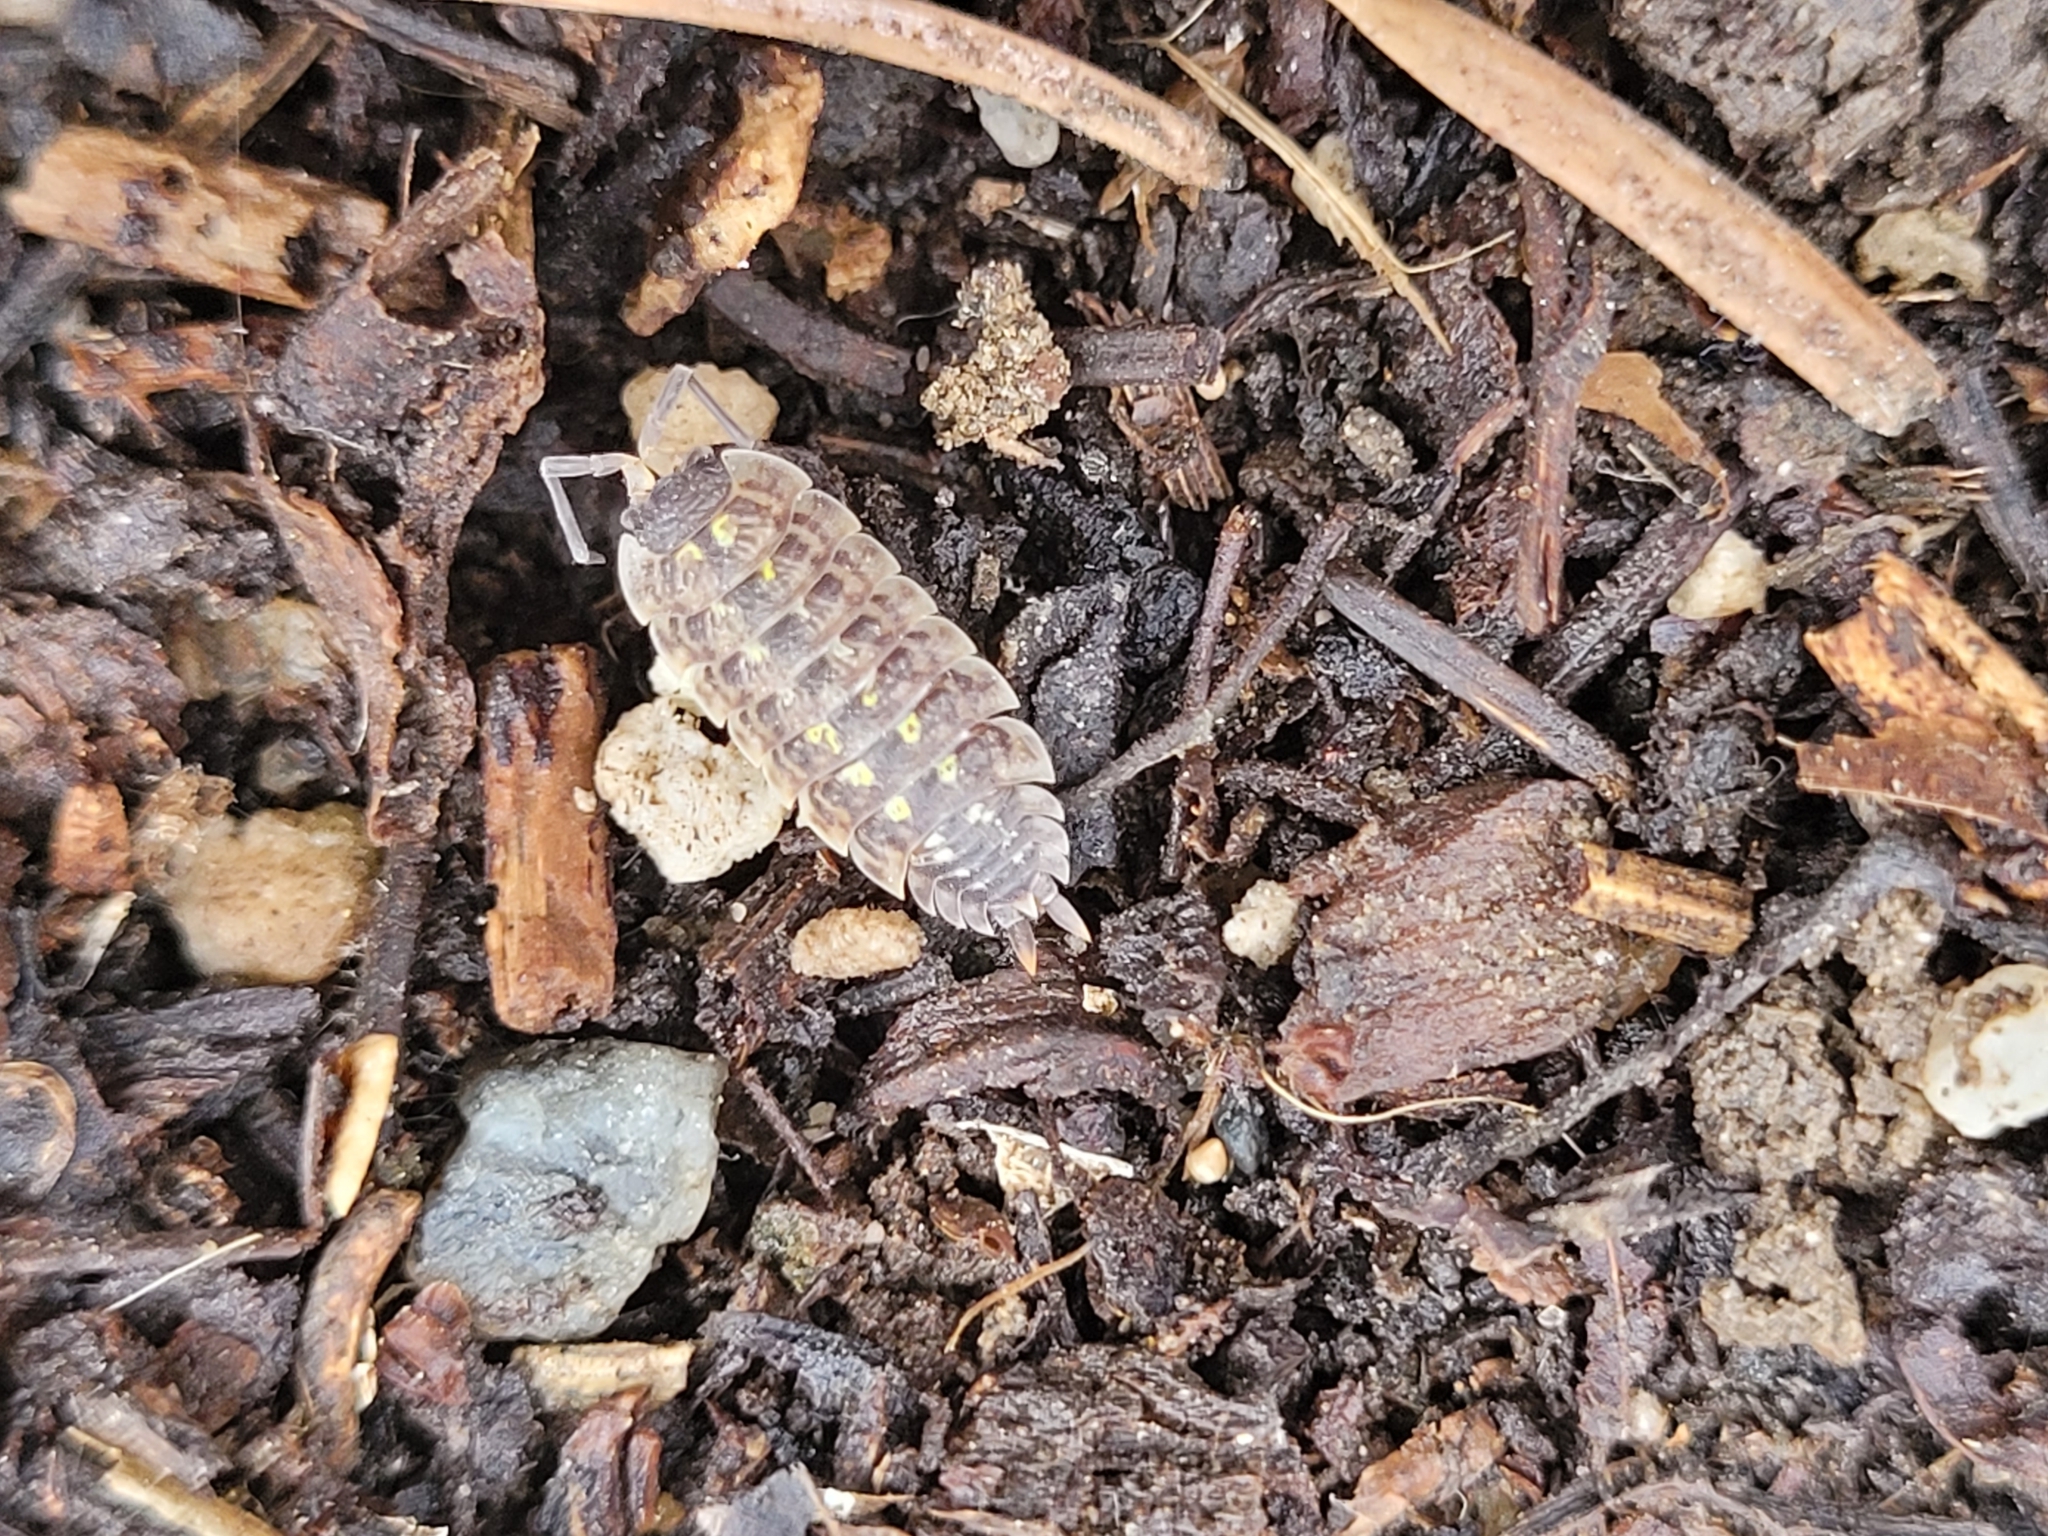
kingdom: Animalia
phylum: Arthropoda
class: Malacostraca
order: Isopoda
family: Porcellionidae
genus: Porcellio
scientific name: Porcellio spinicornis
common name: Painted woodlouse
